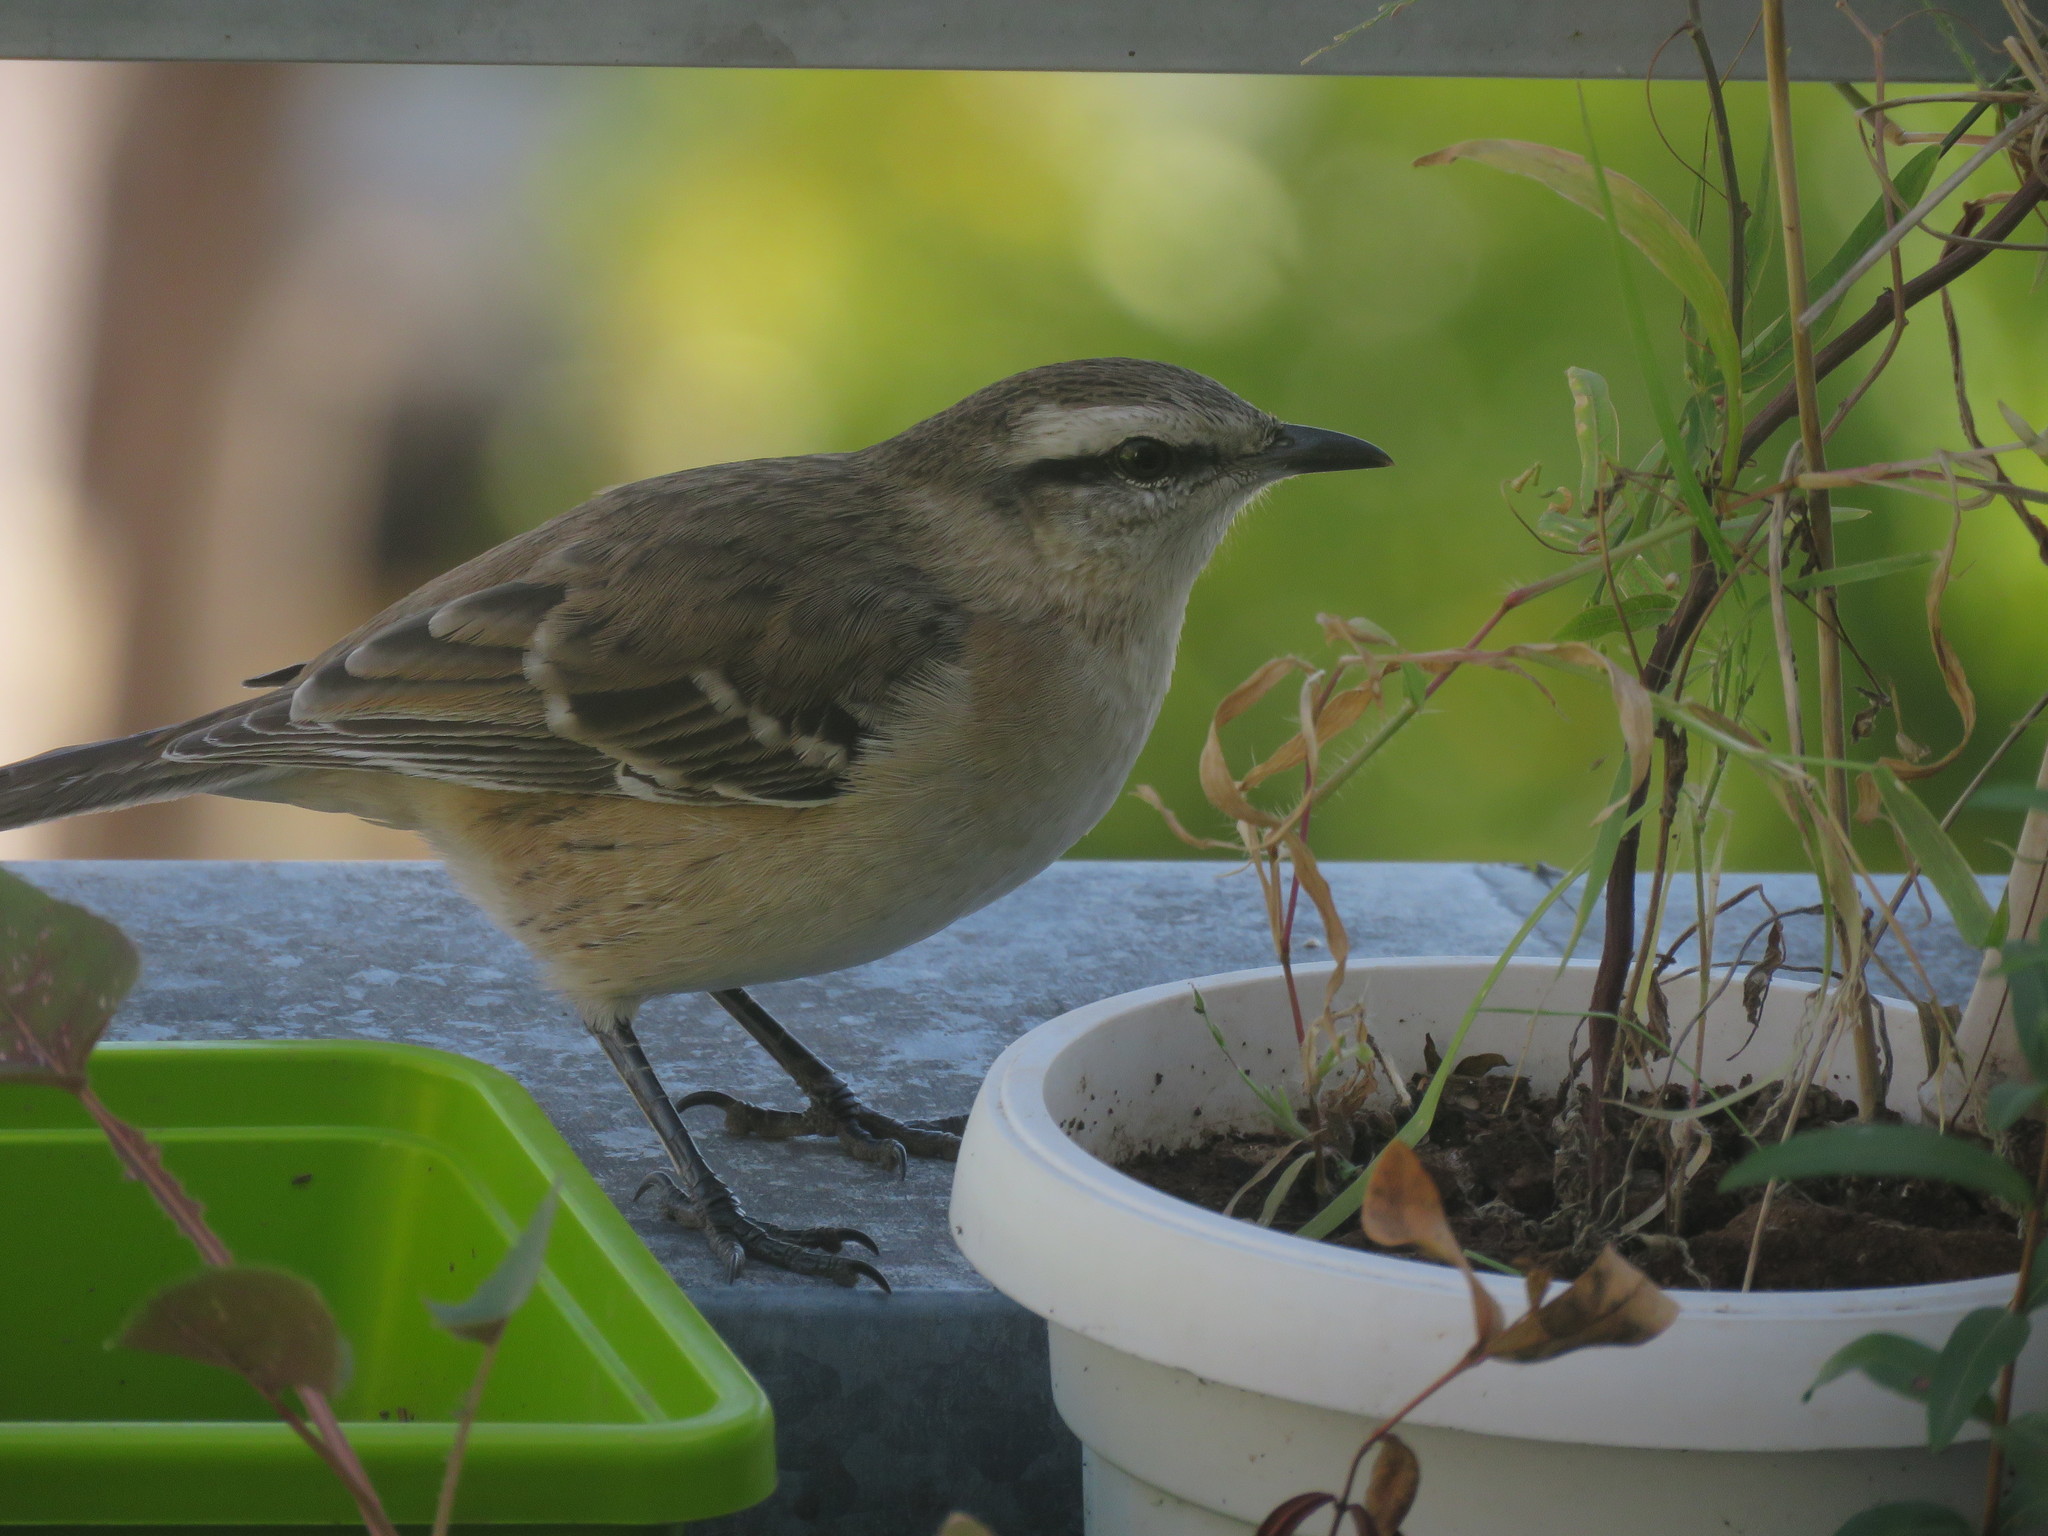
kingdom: Animalia
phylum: Chordata
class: Aves
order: Passeriformes
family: Mimidae
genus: Mimus
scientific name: Mimus saturninus
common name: Chalk-browed mockingbird
